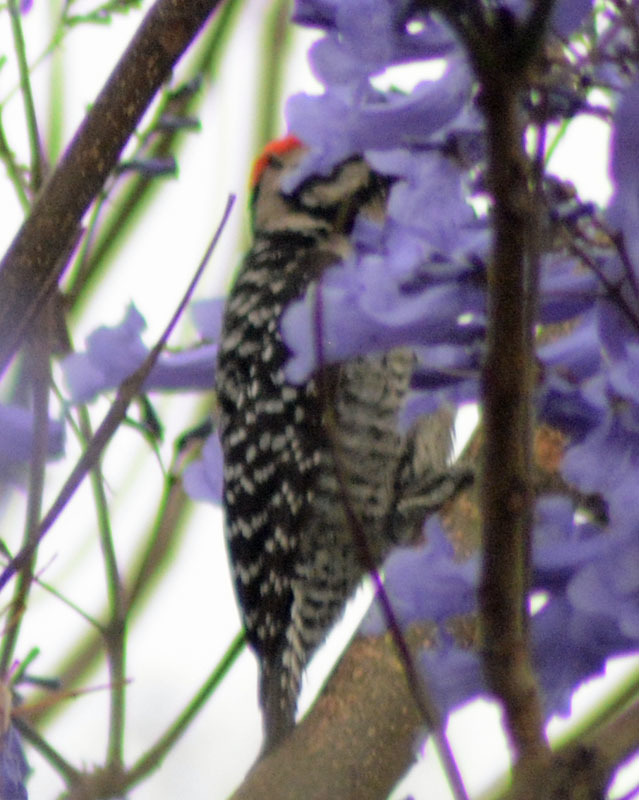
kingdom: Animalia
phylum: Chordata
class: Aves
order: Piciformes
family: Picidae
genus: Dryobates
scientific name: Dryobates scalaris
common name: Ladder-backed woodpecker
